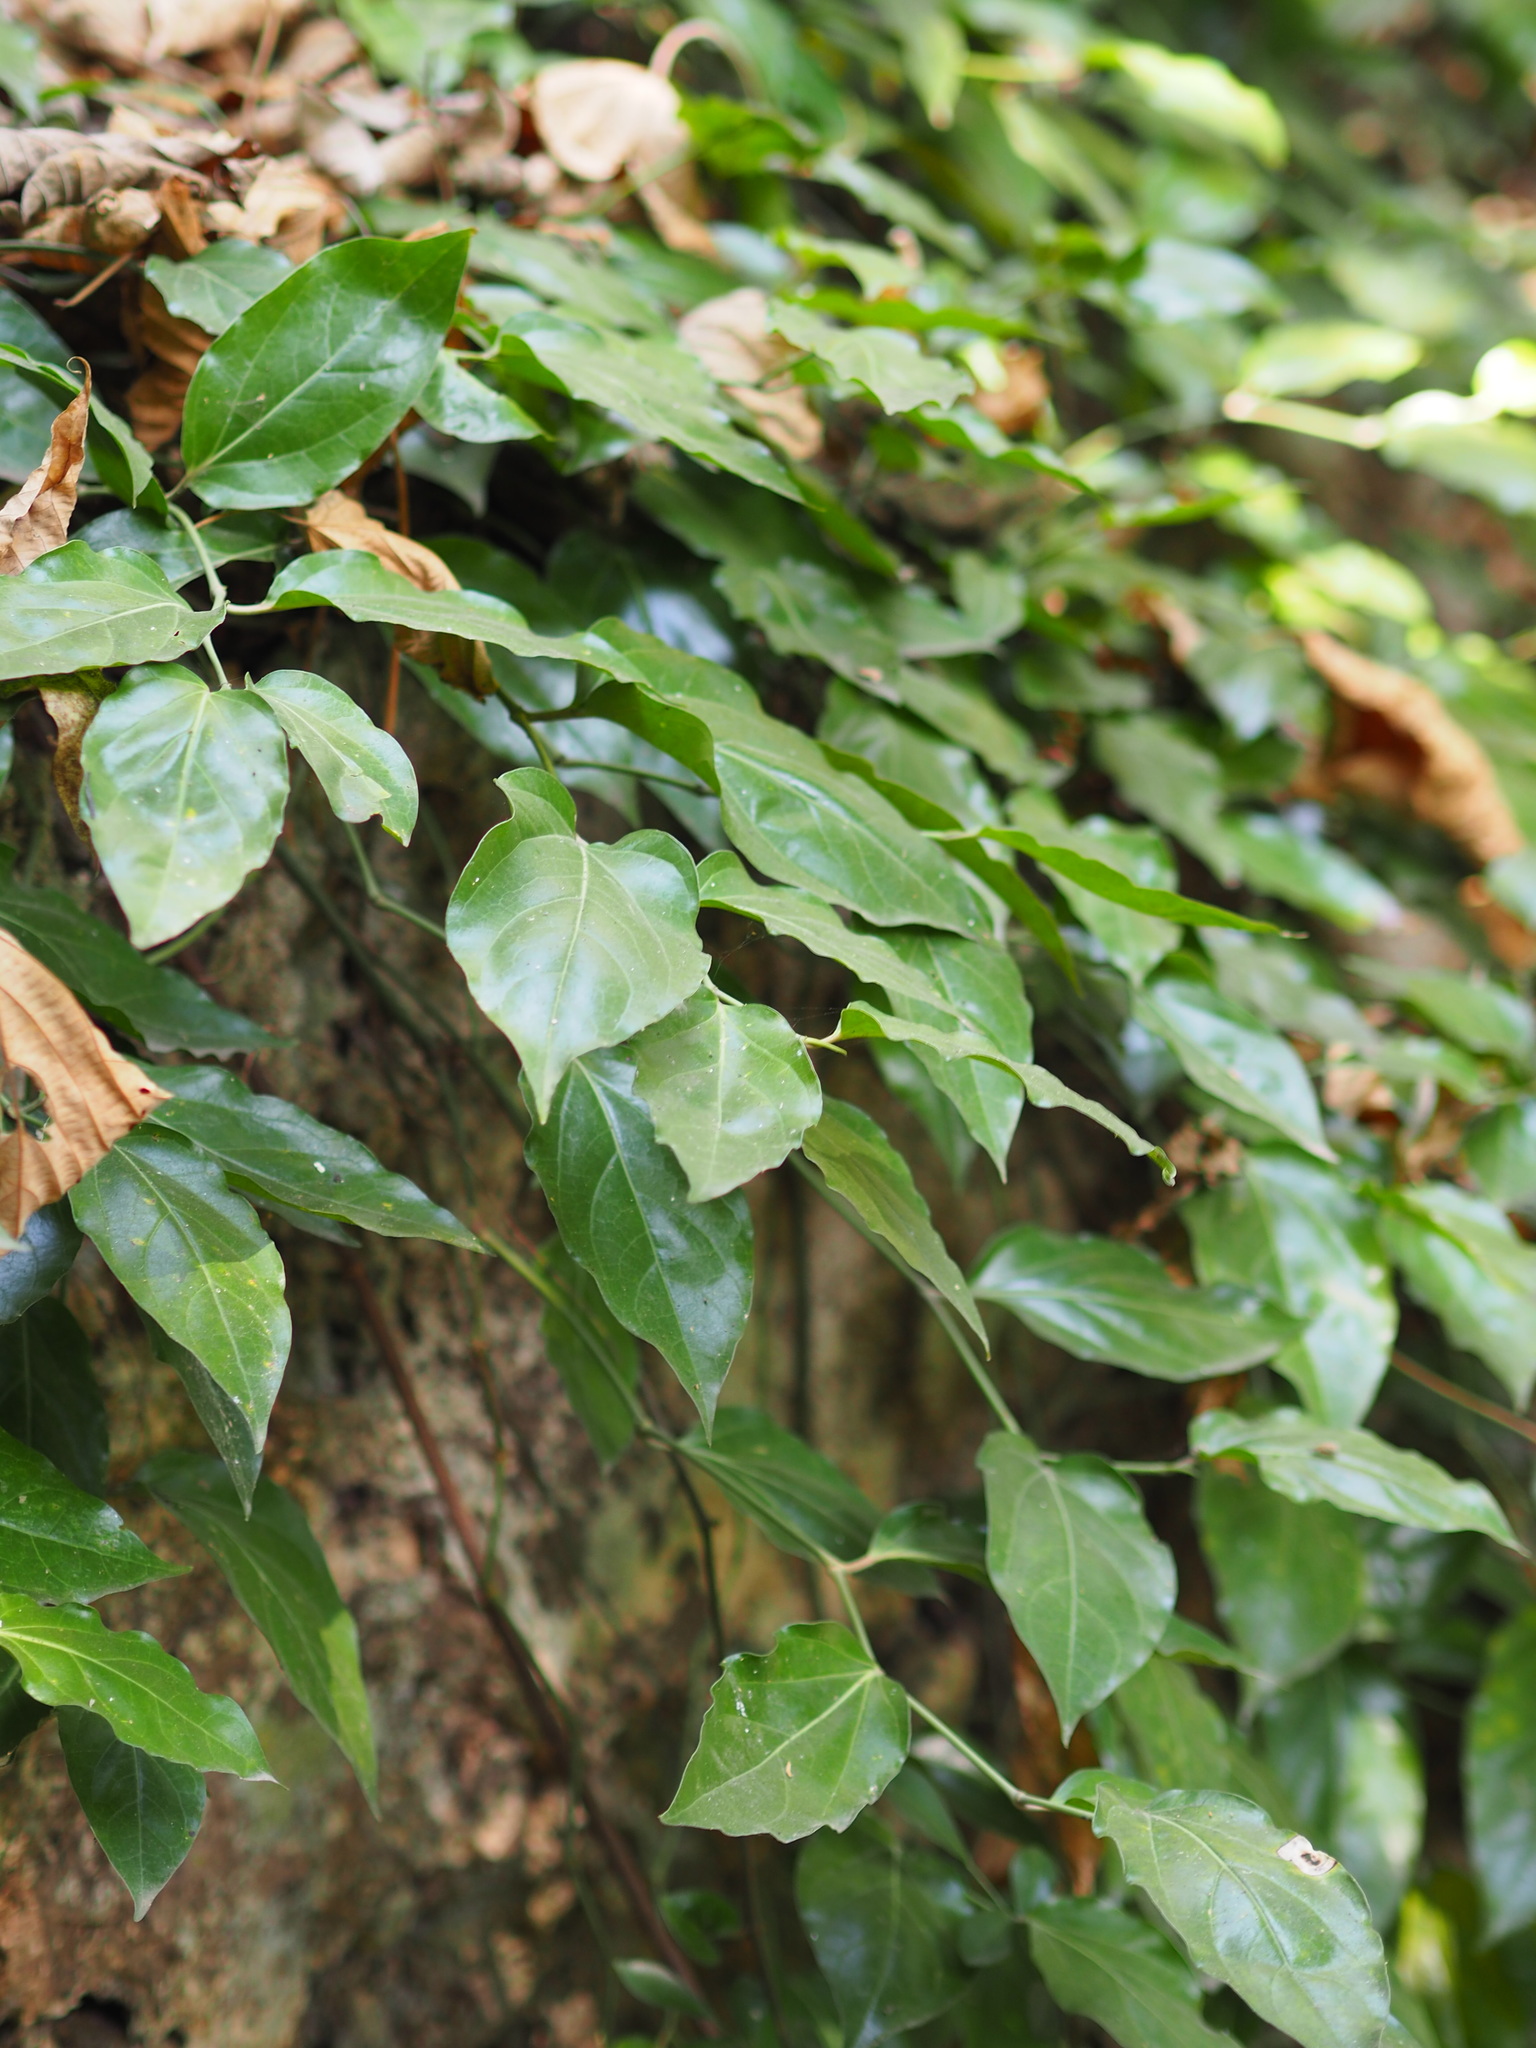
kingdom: Plantae
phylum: Tracheophyta
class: Magnoliopsida
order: Piperales
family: Piperaceae
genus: Piper
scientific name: Piper kawakamii
